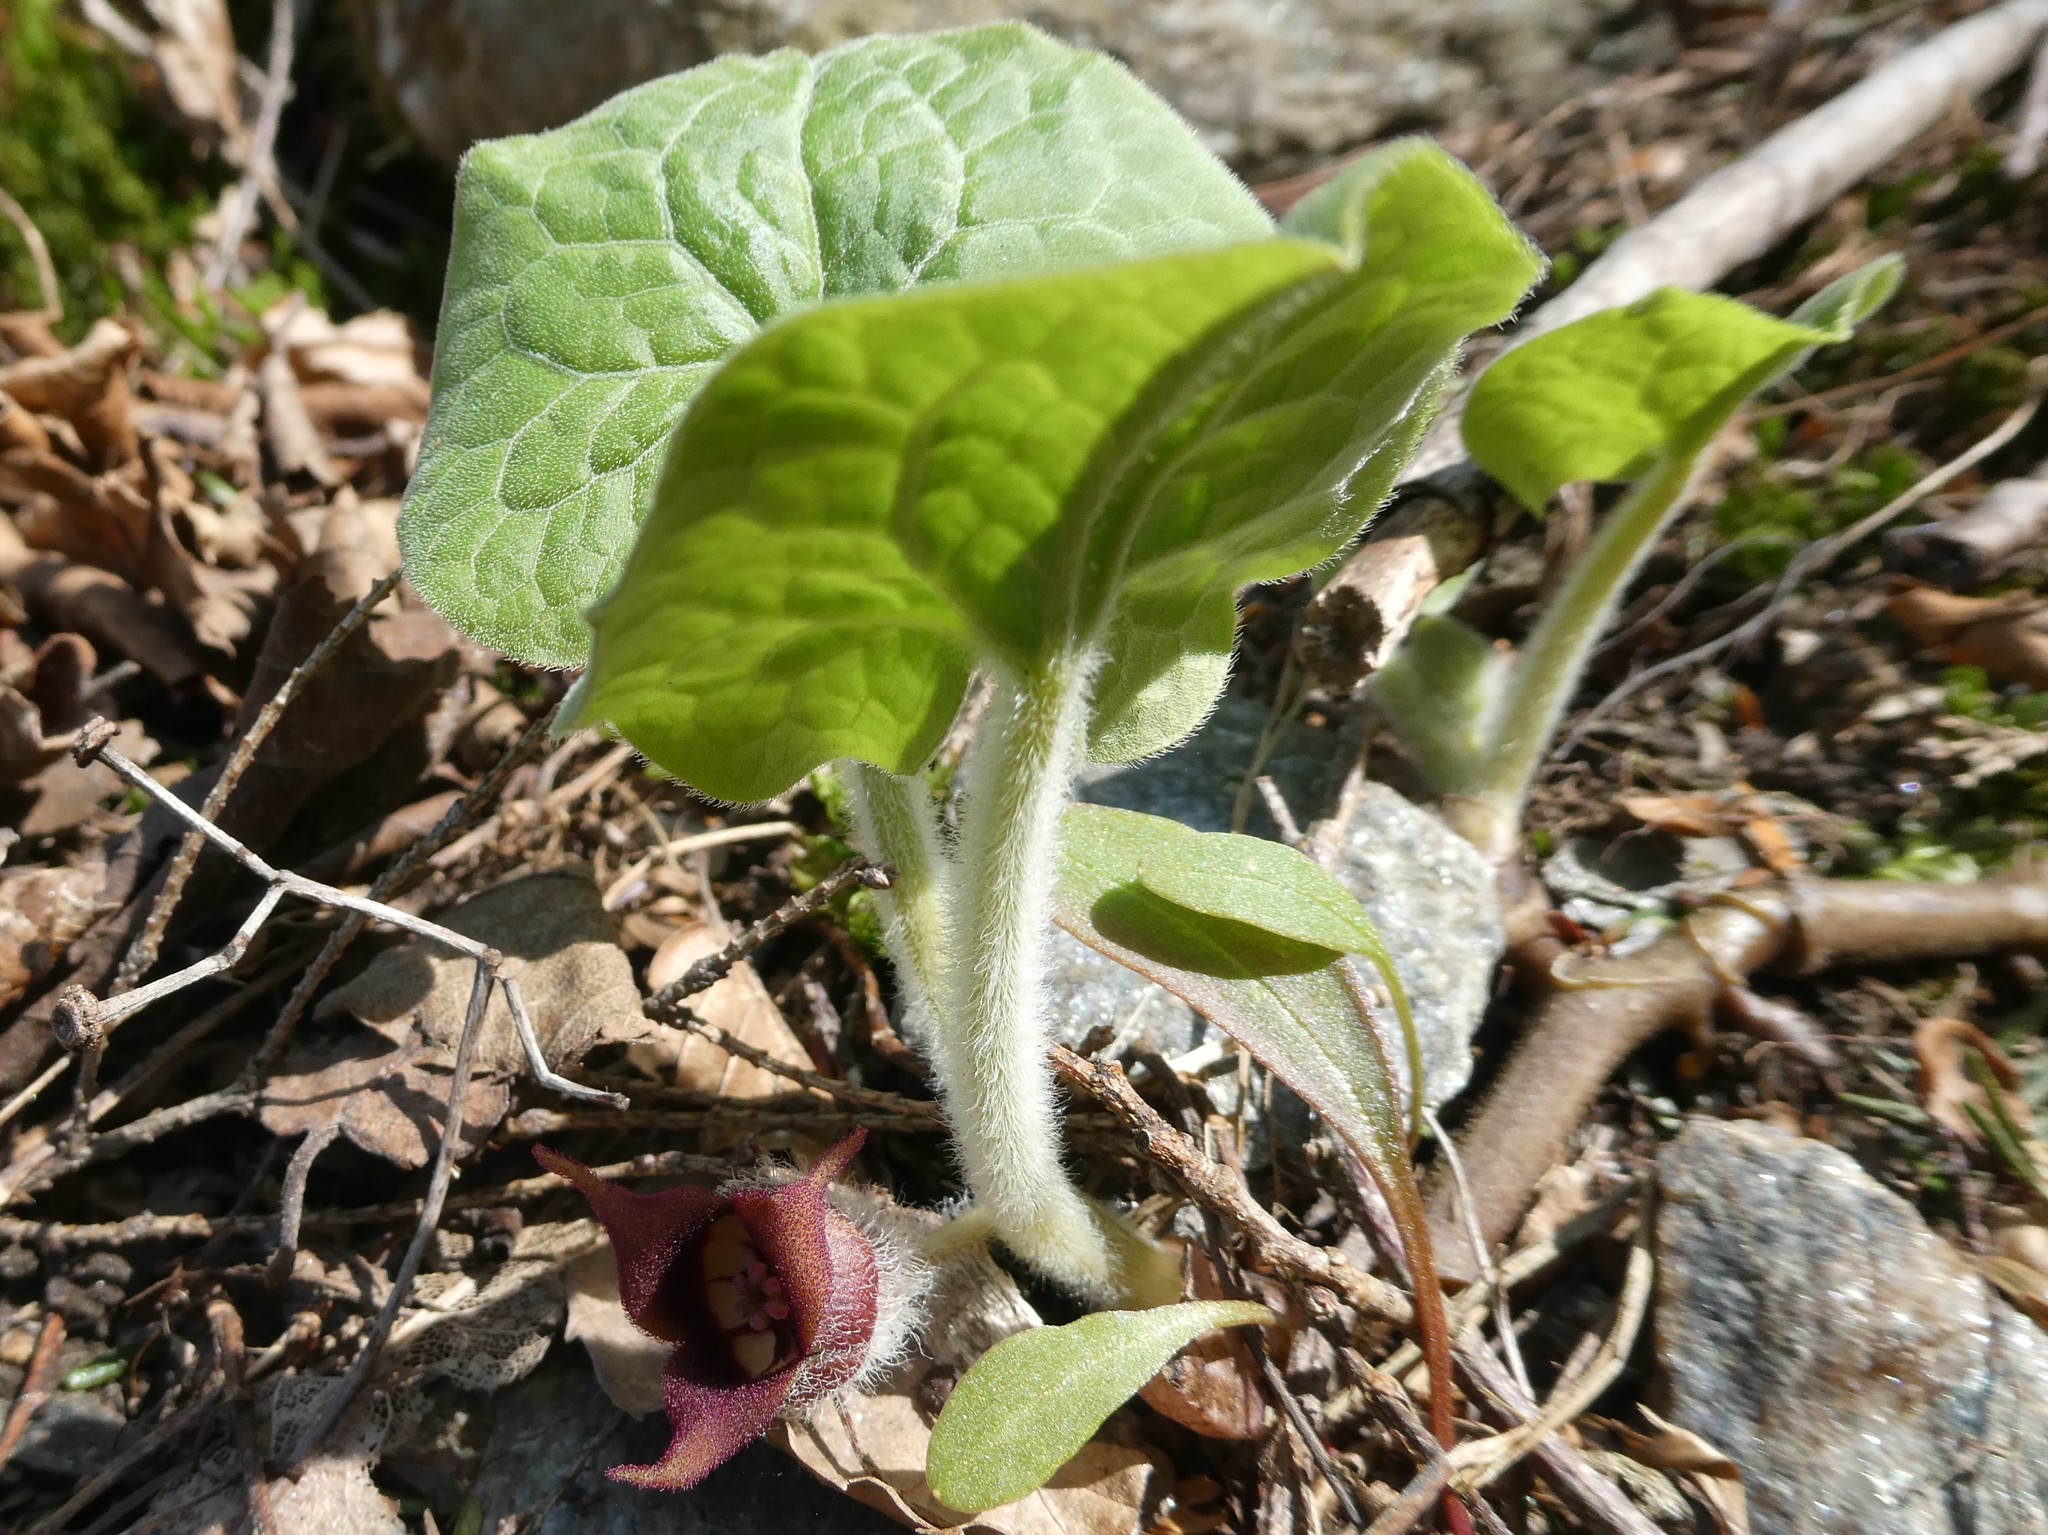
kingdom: Plantae
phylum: Tracheophyta
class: Magnoliopsida
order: Piperales
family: Aristolochiaceae
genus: Asarum
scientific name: Asarum canadense
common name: Wild ginger
